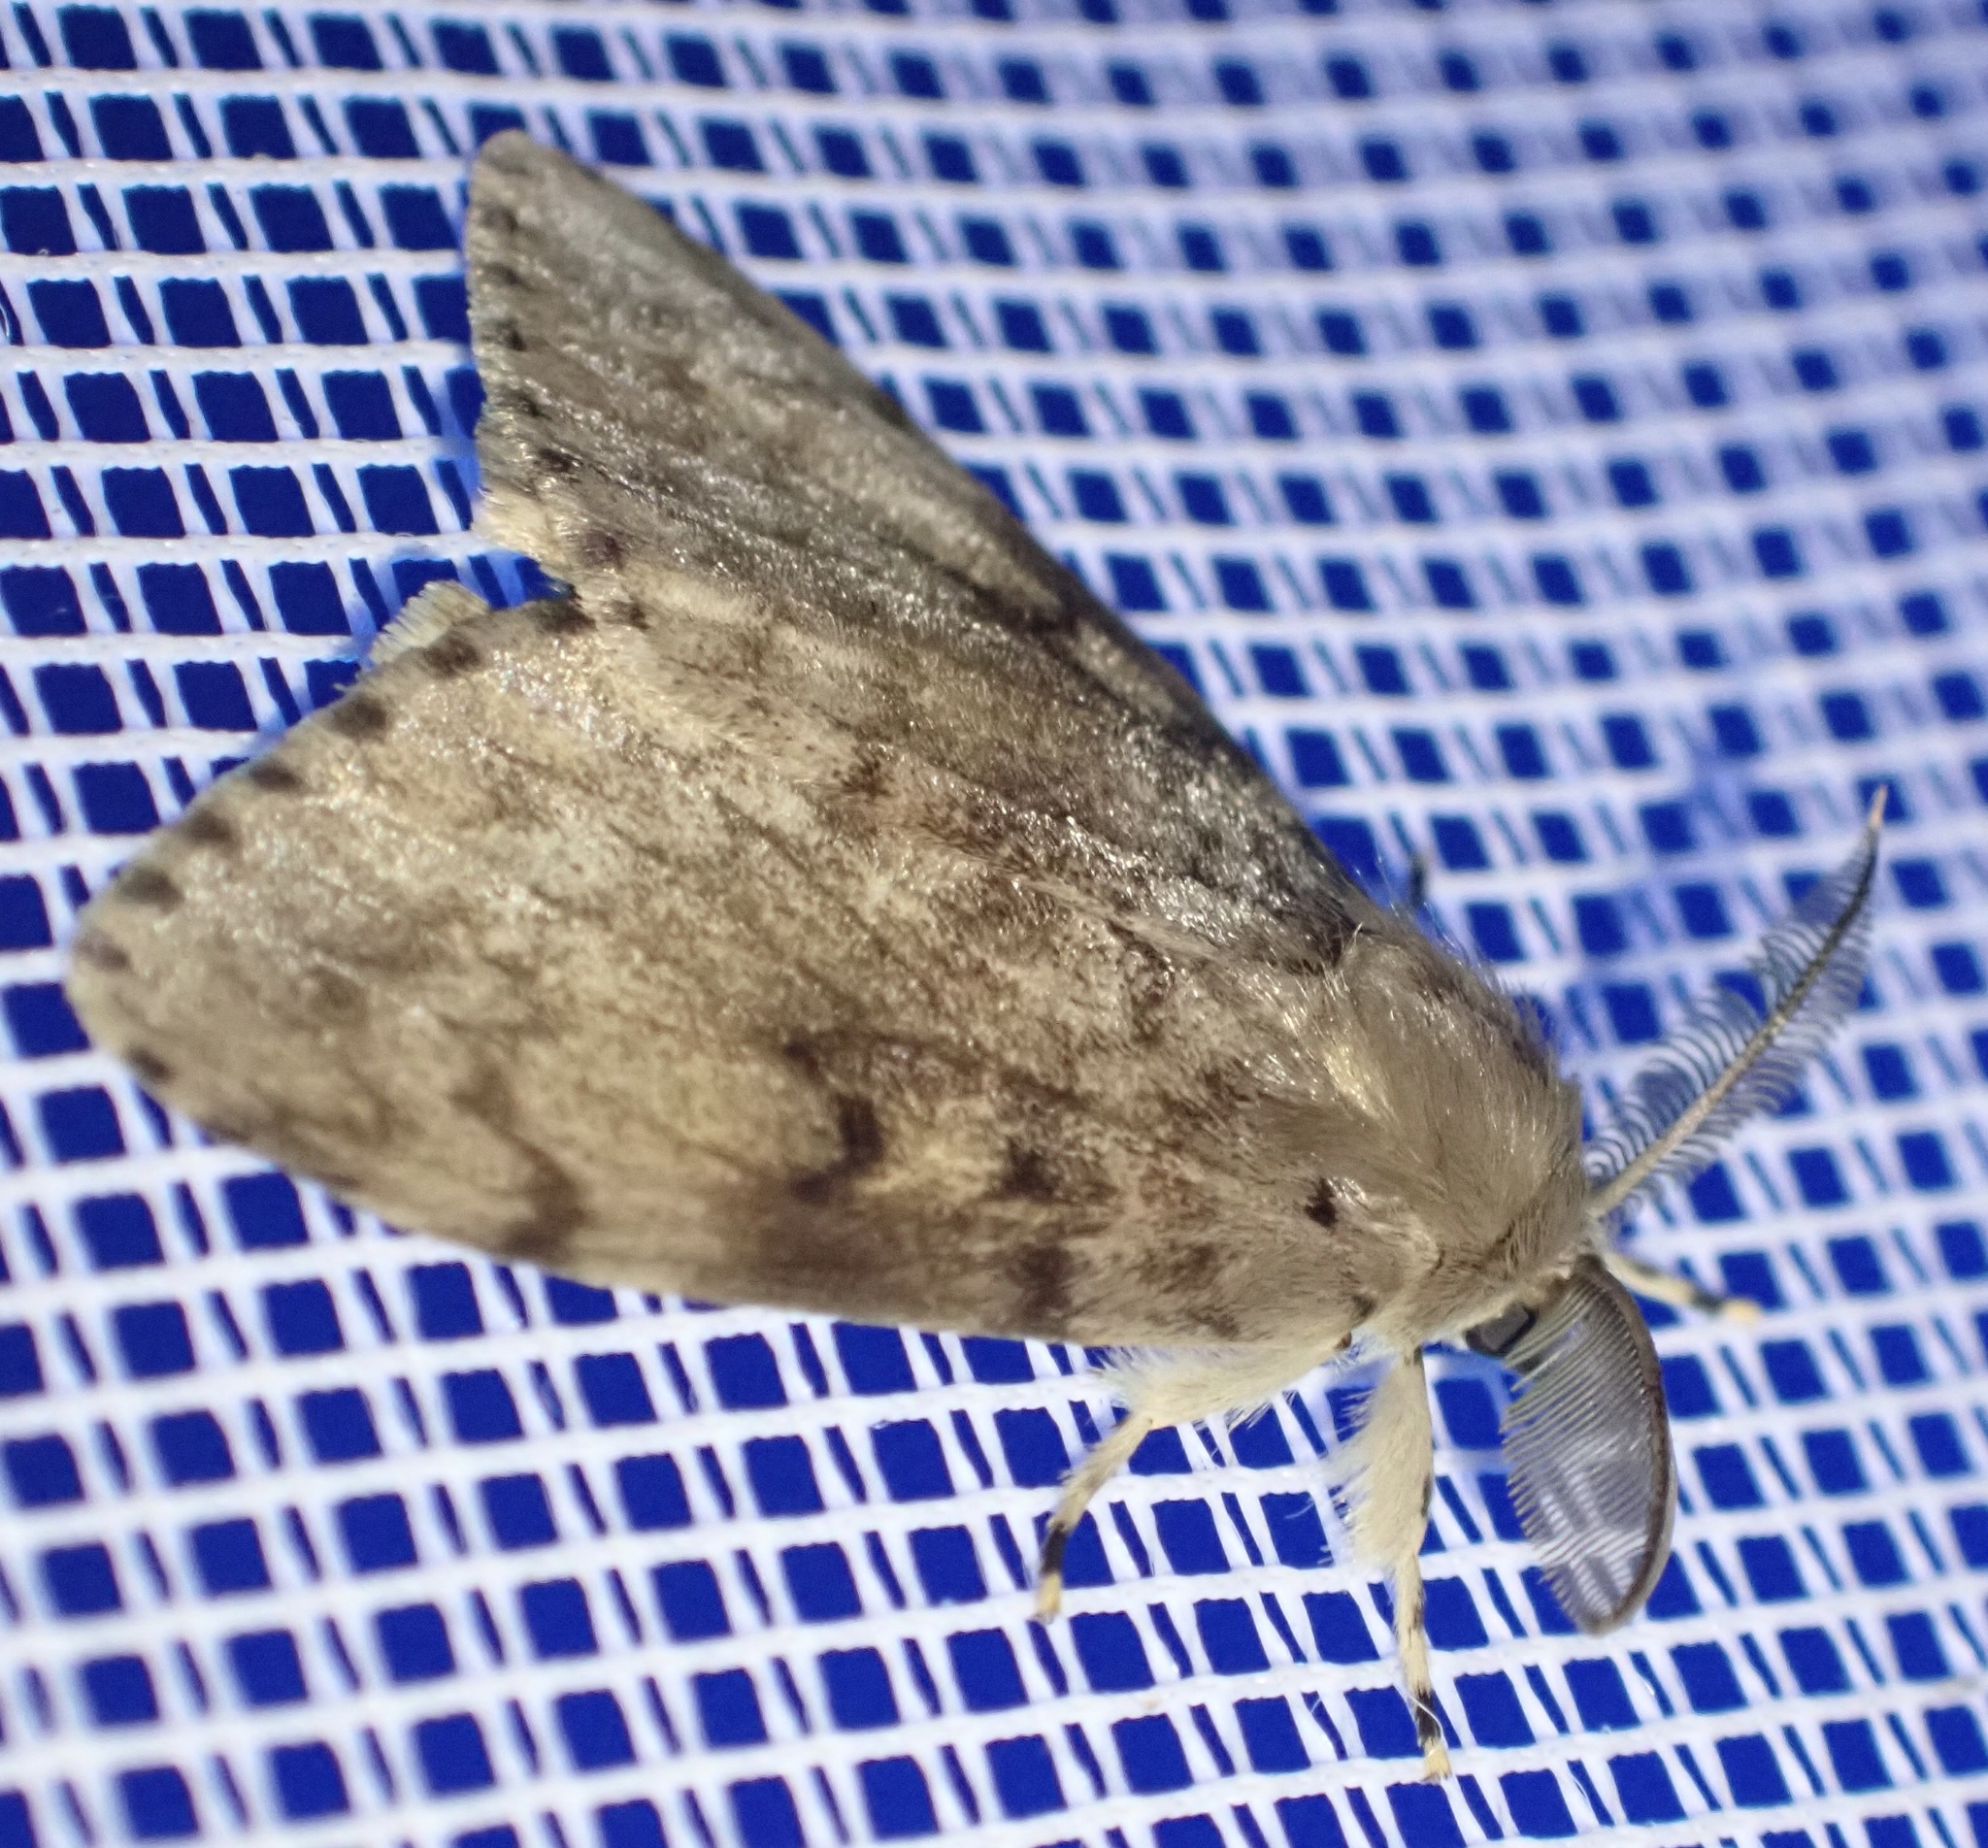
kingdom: Animalia
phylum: Arthropoda
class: Insecta
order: Lepidoptera
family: Erebidae
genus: Lymantria
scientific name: Lymantria dispar
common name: Gypsy moth
